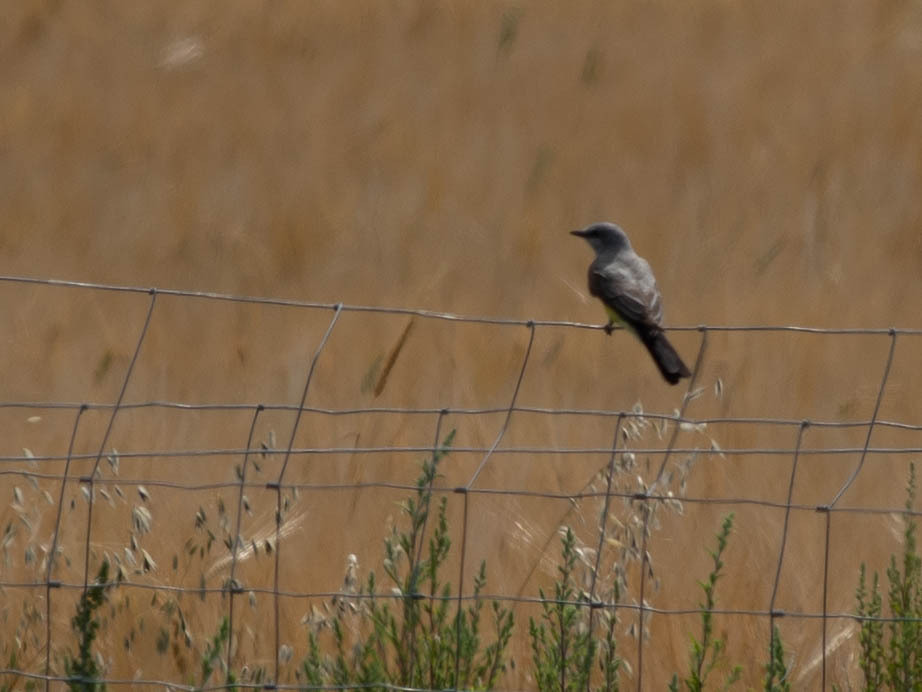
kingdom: Animalia
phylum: Chordata
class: Aves
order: Passeriformes
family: Tyrannidae
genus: Tyrannus
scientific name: Tyrannus verticalis
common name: Western kingbird
